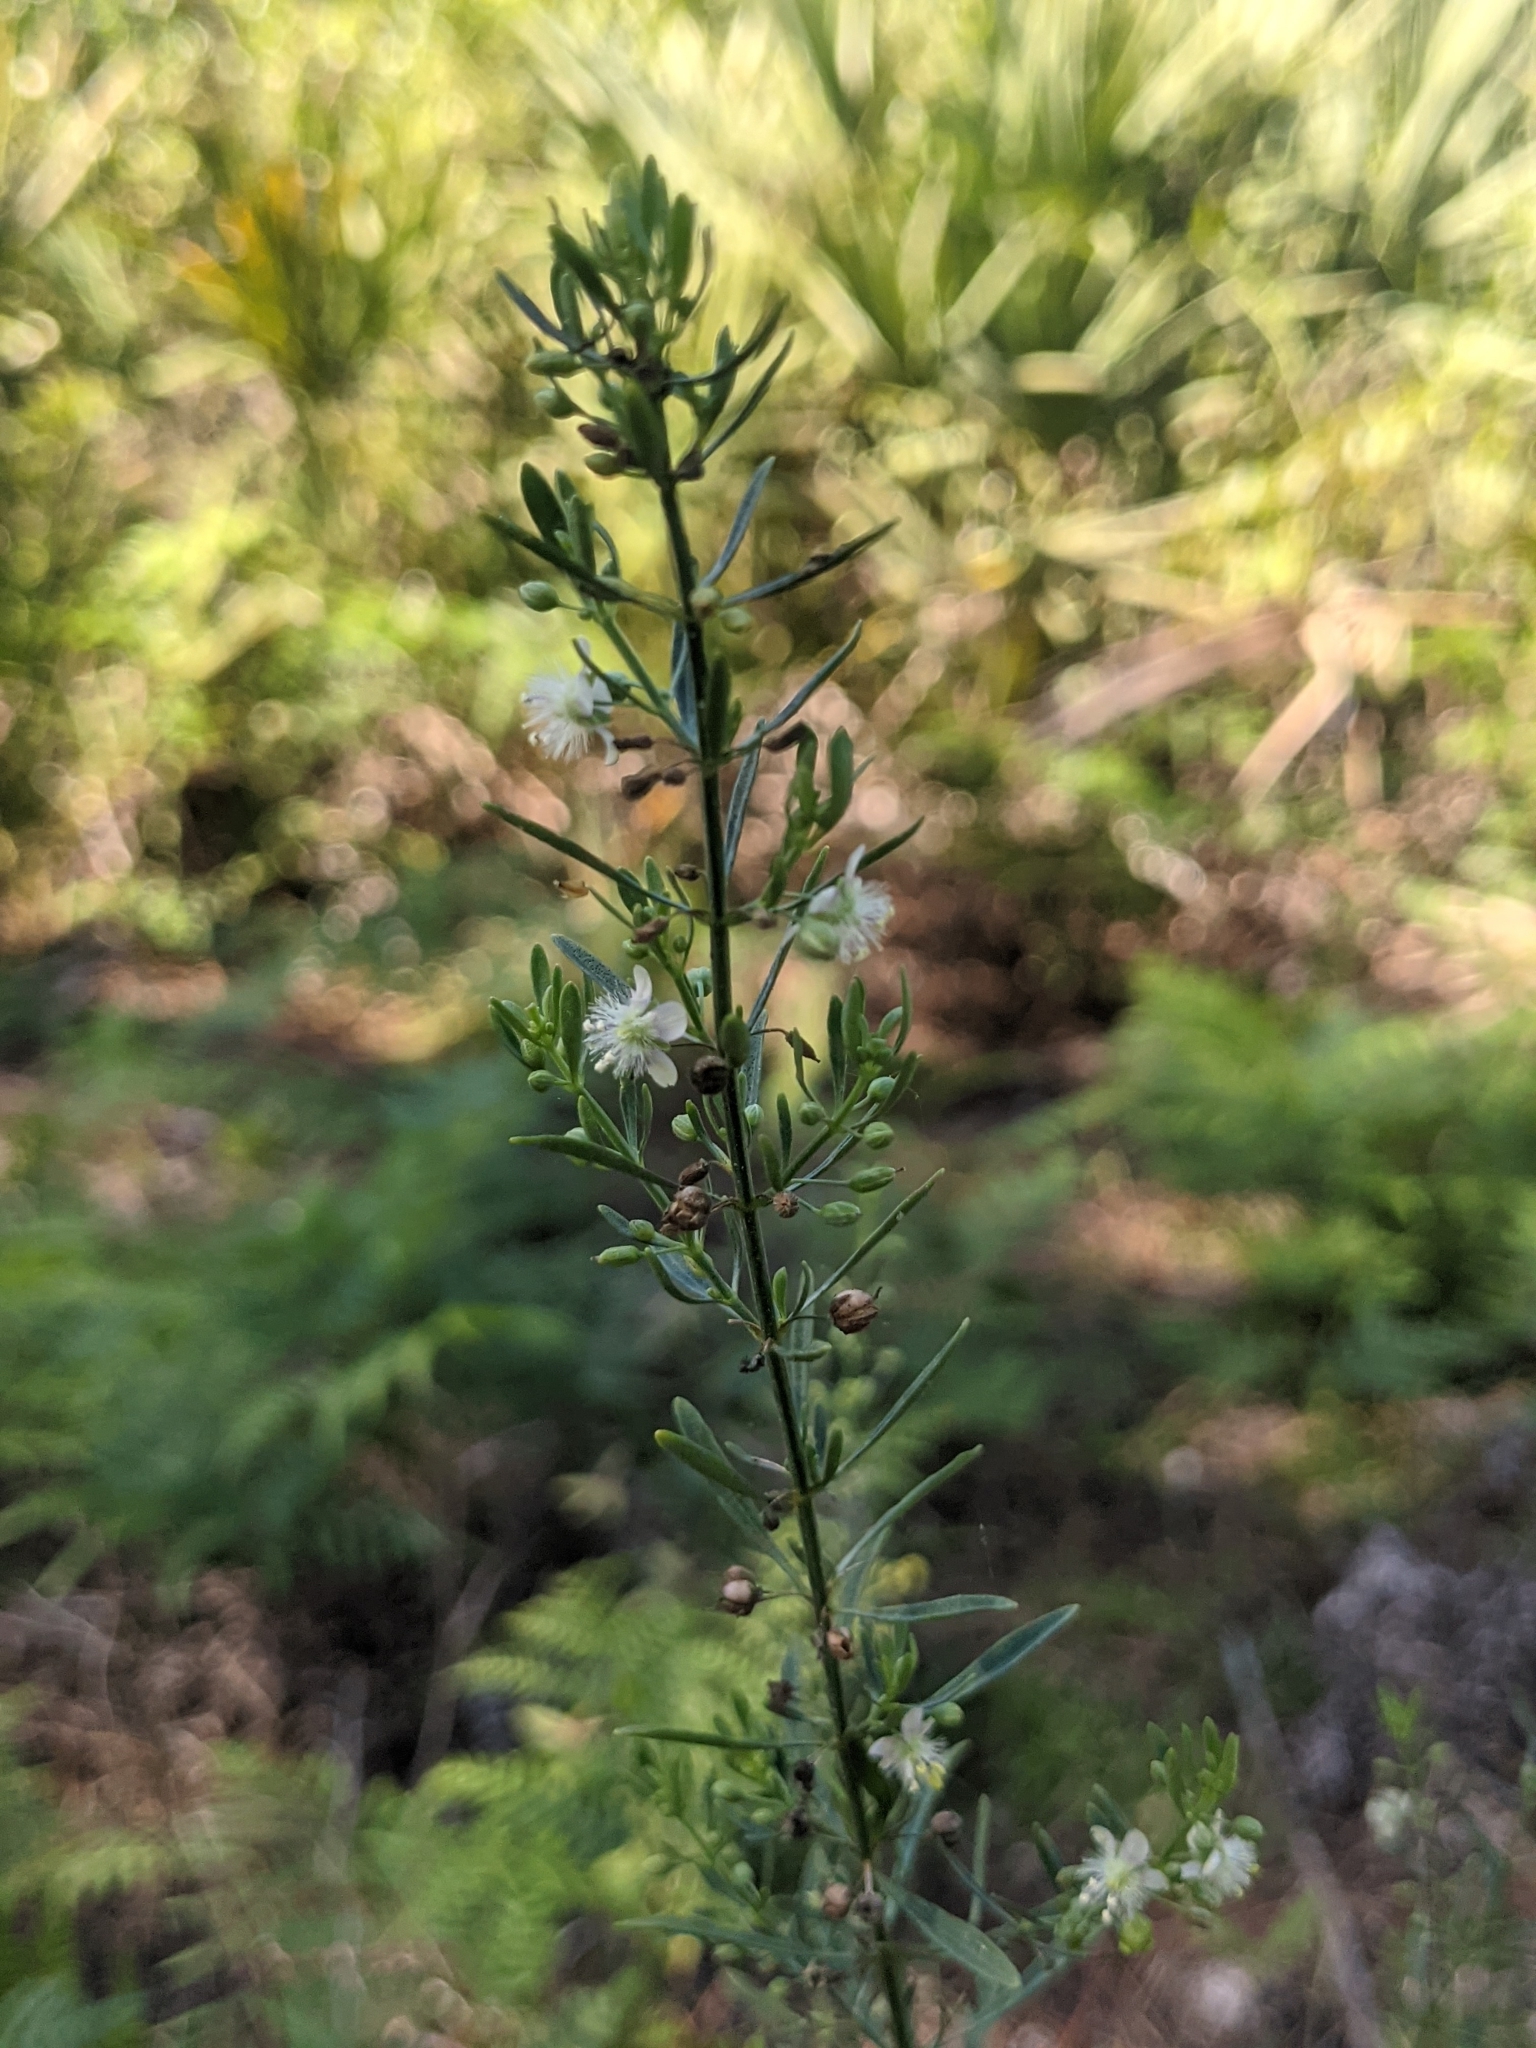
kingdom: Plantae
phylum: Tracheophyta
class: Magnoliopsida
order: Lamiales
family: Plantaginaceae
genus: Scoparia
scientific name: Scoparia dulcis
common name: Scoparia-weed
